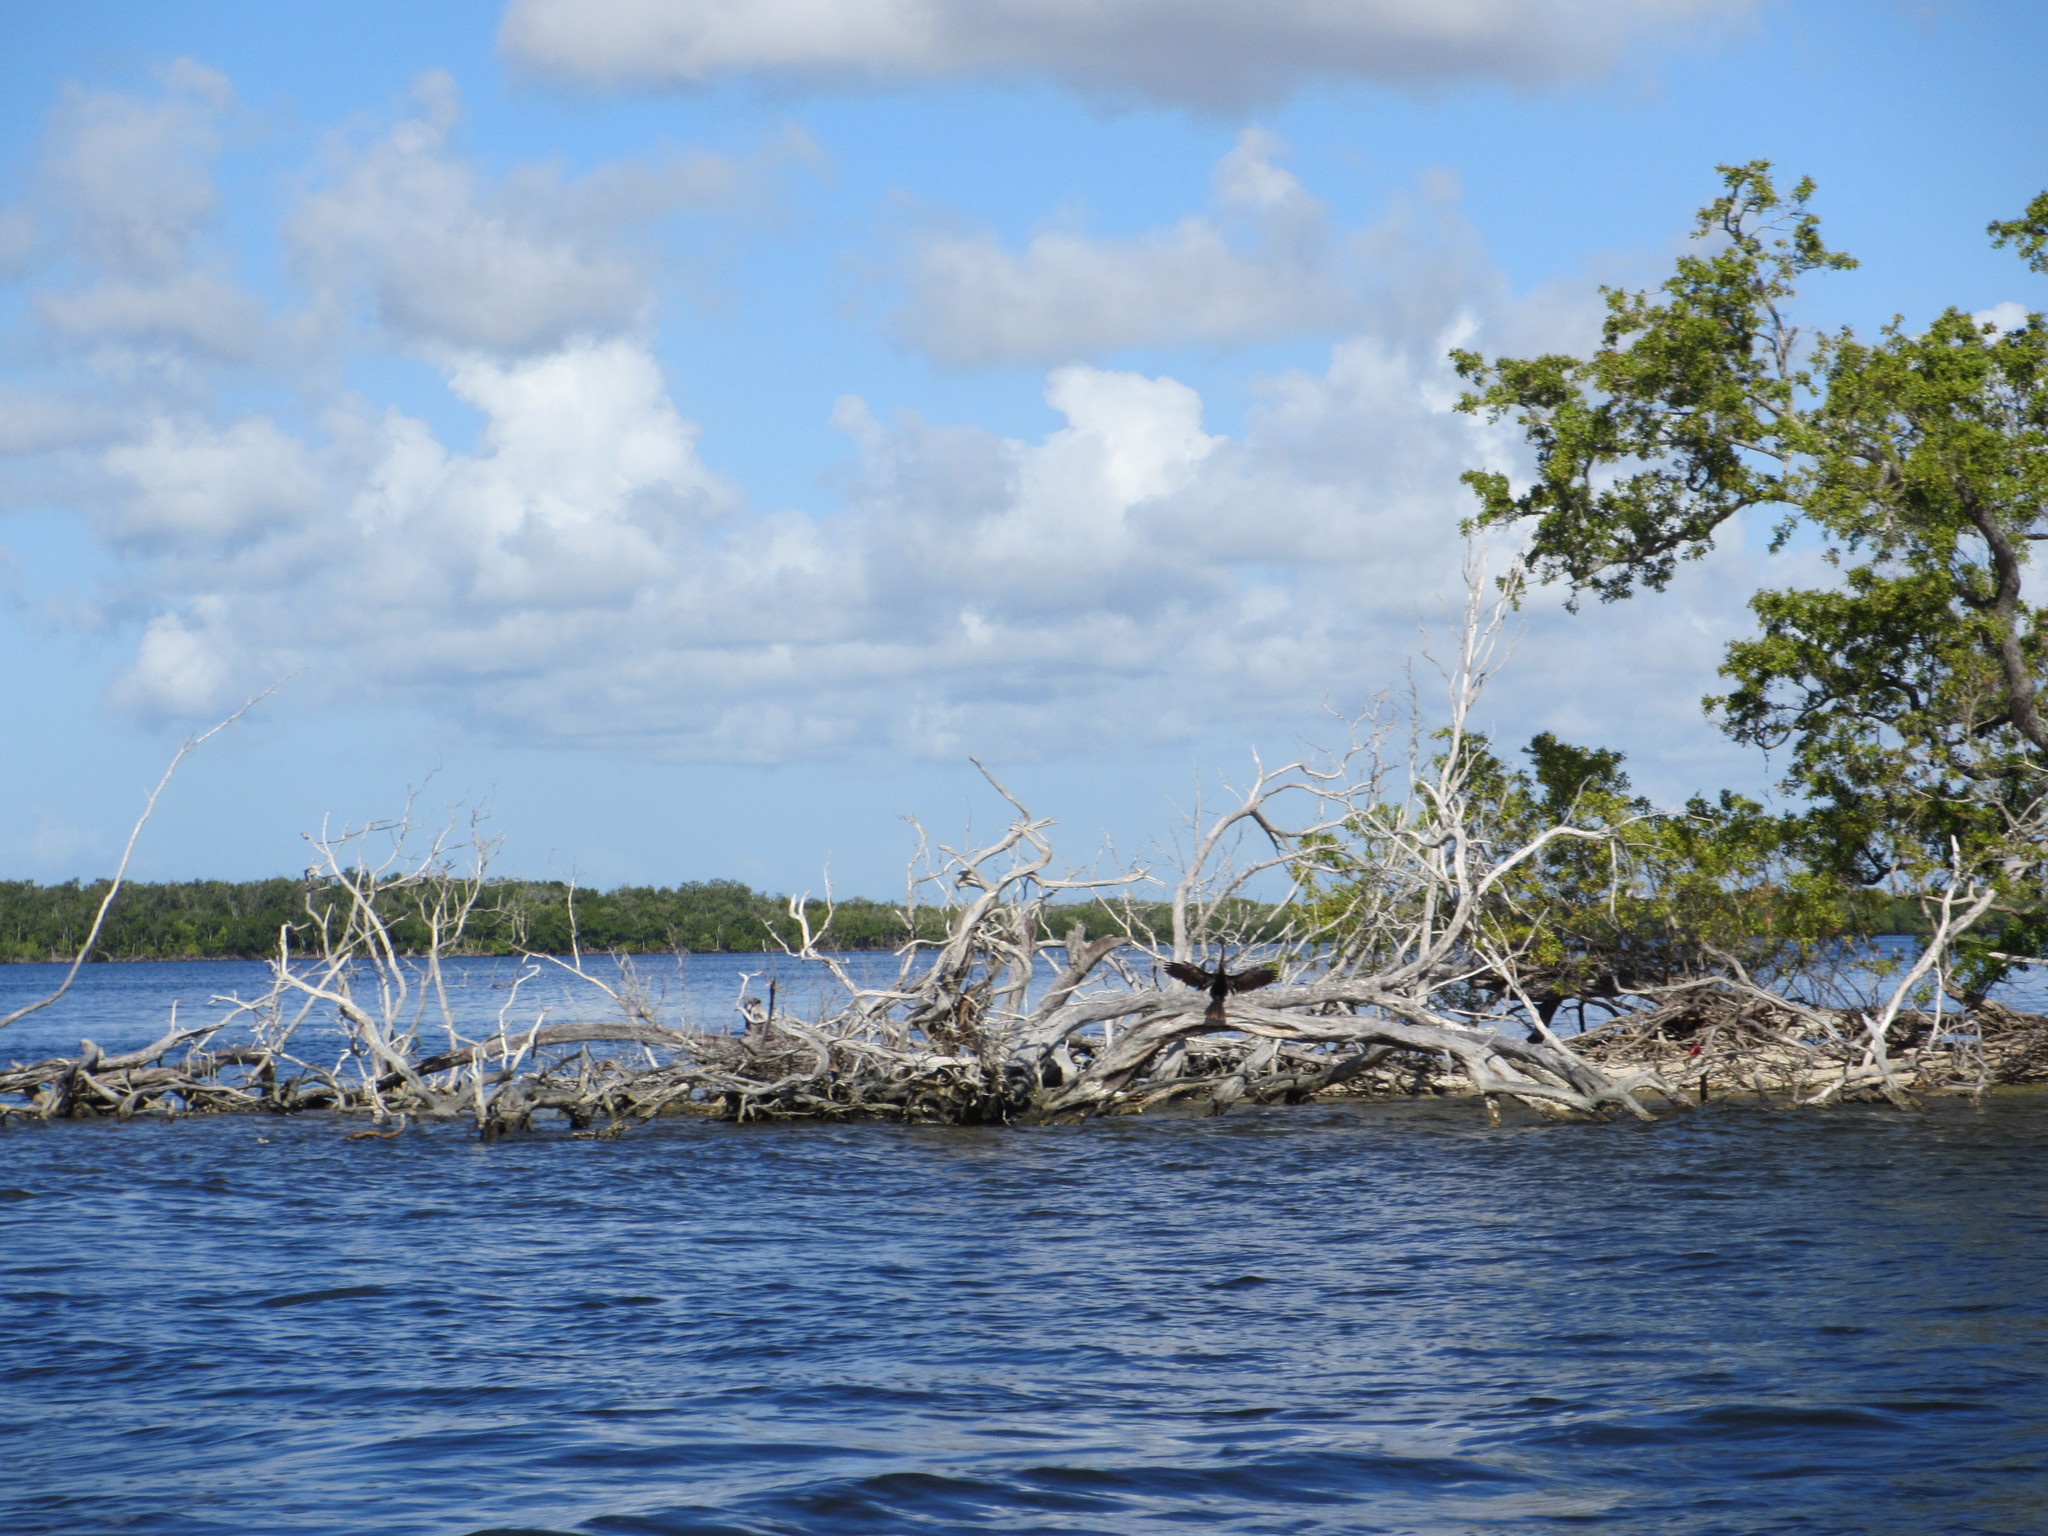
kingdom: Animalia
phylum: Chordata
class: Aves
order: Suliformes
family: Anhingidae
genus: Anhinga
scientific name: Anhinga anhinga
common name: Anhinga
